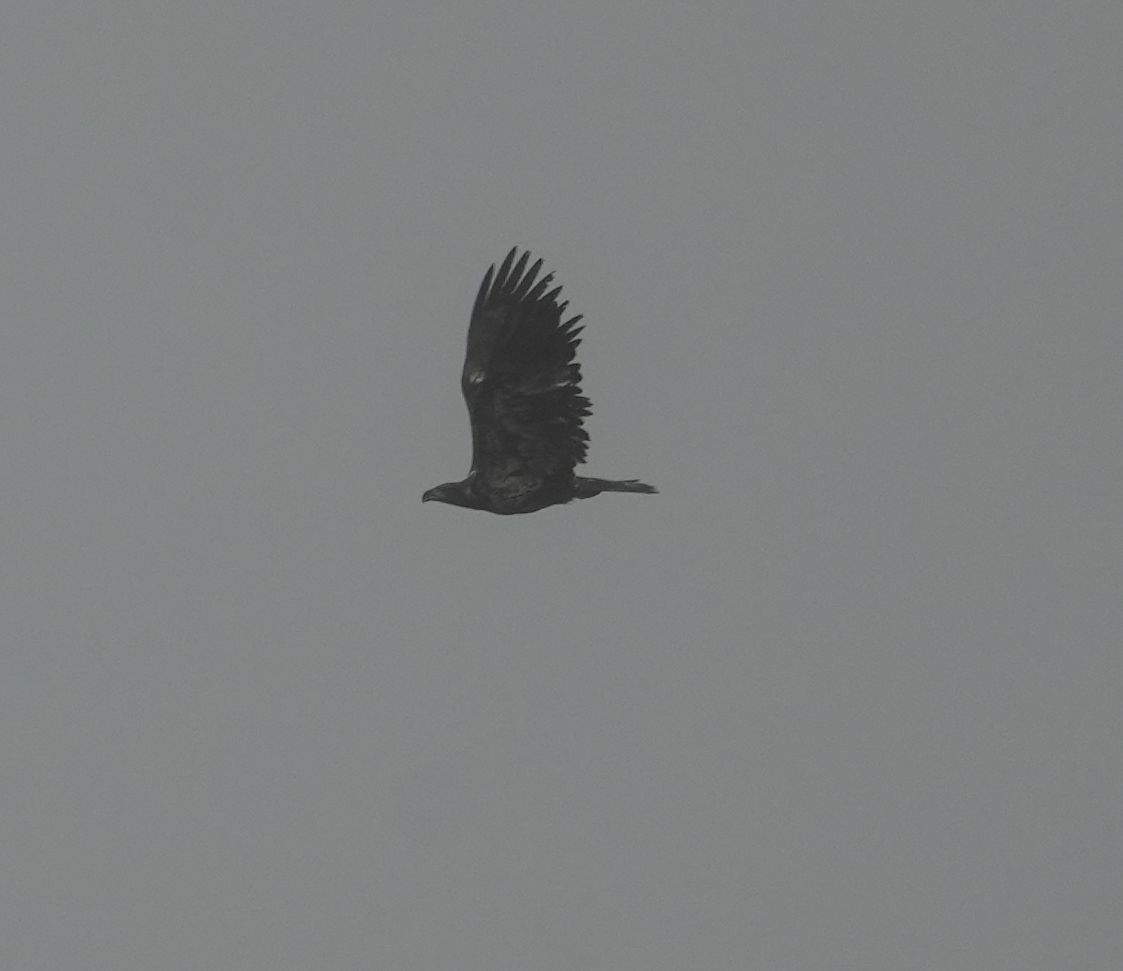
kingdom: Animalia
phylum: Chordata
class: Aves
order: Accipitriformes
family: Accipitridae
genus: Haliaeetus
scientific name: Haliaeetus leucocephalus
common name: Bald eagle
